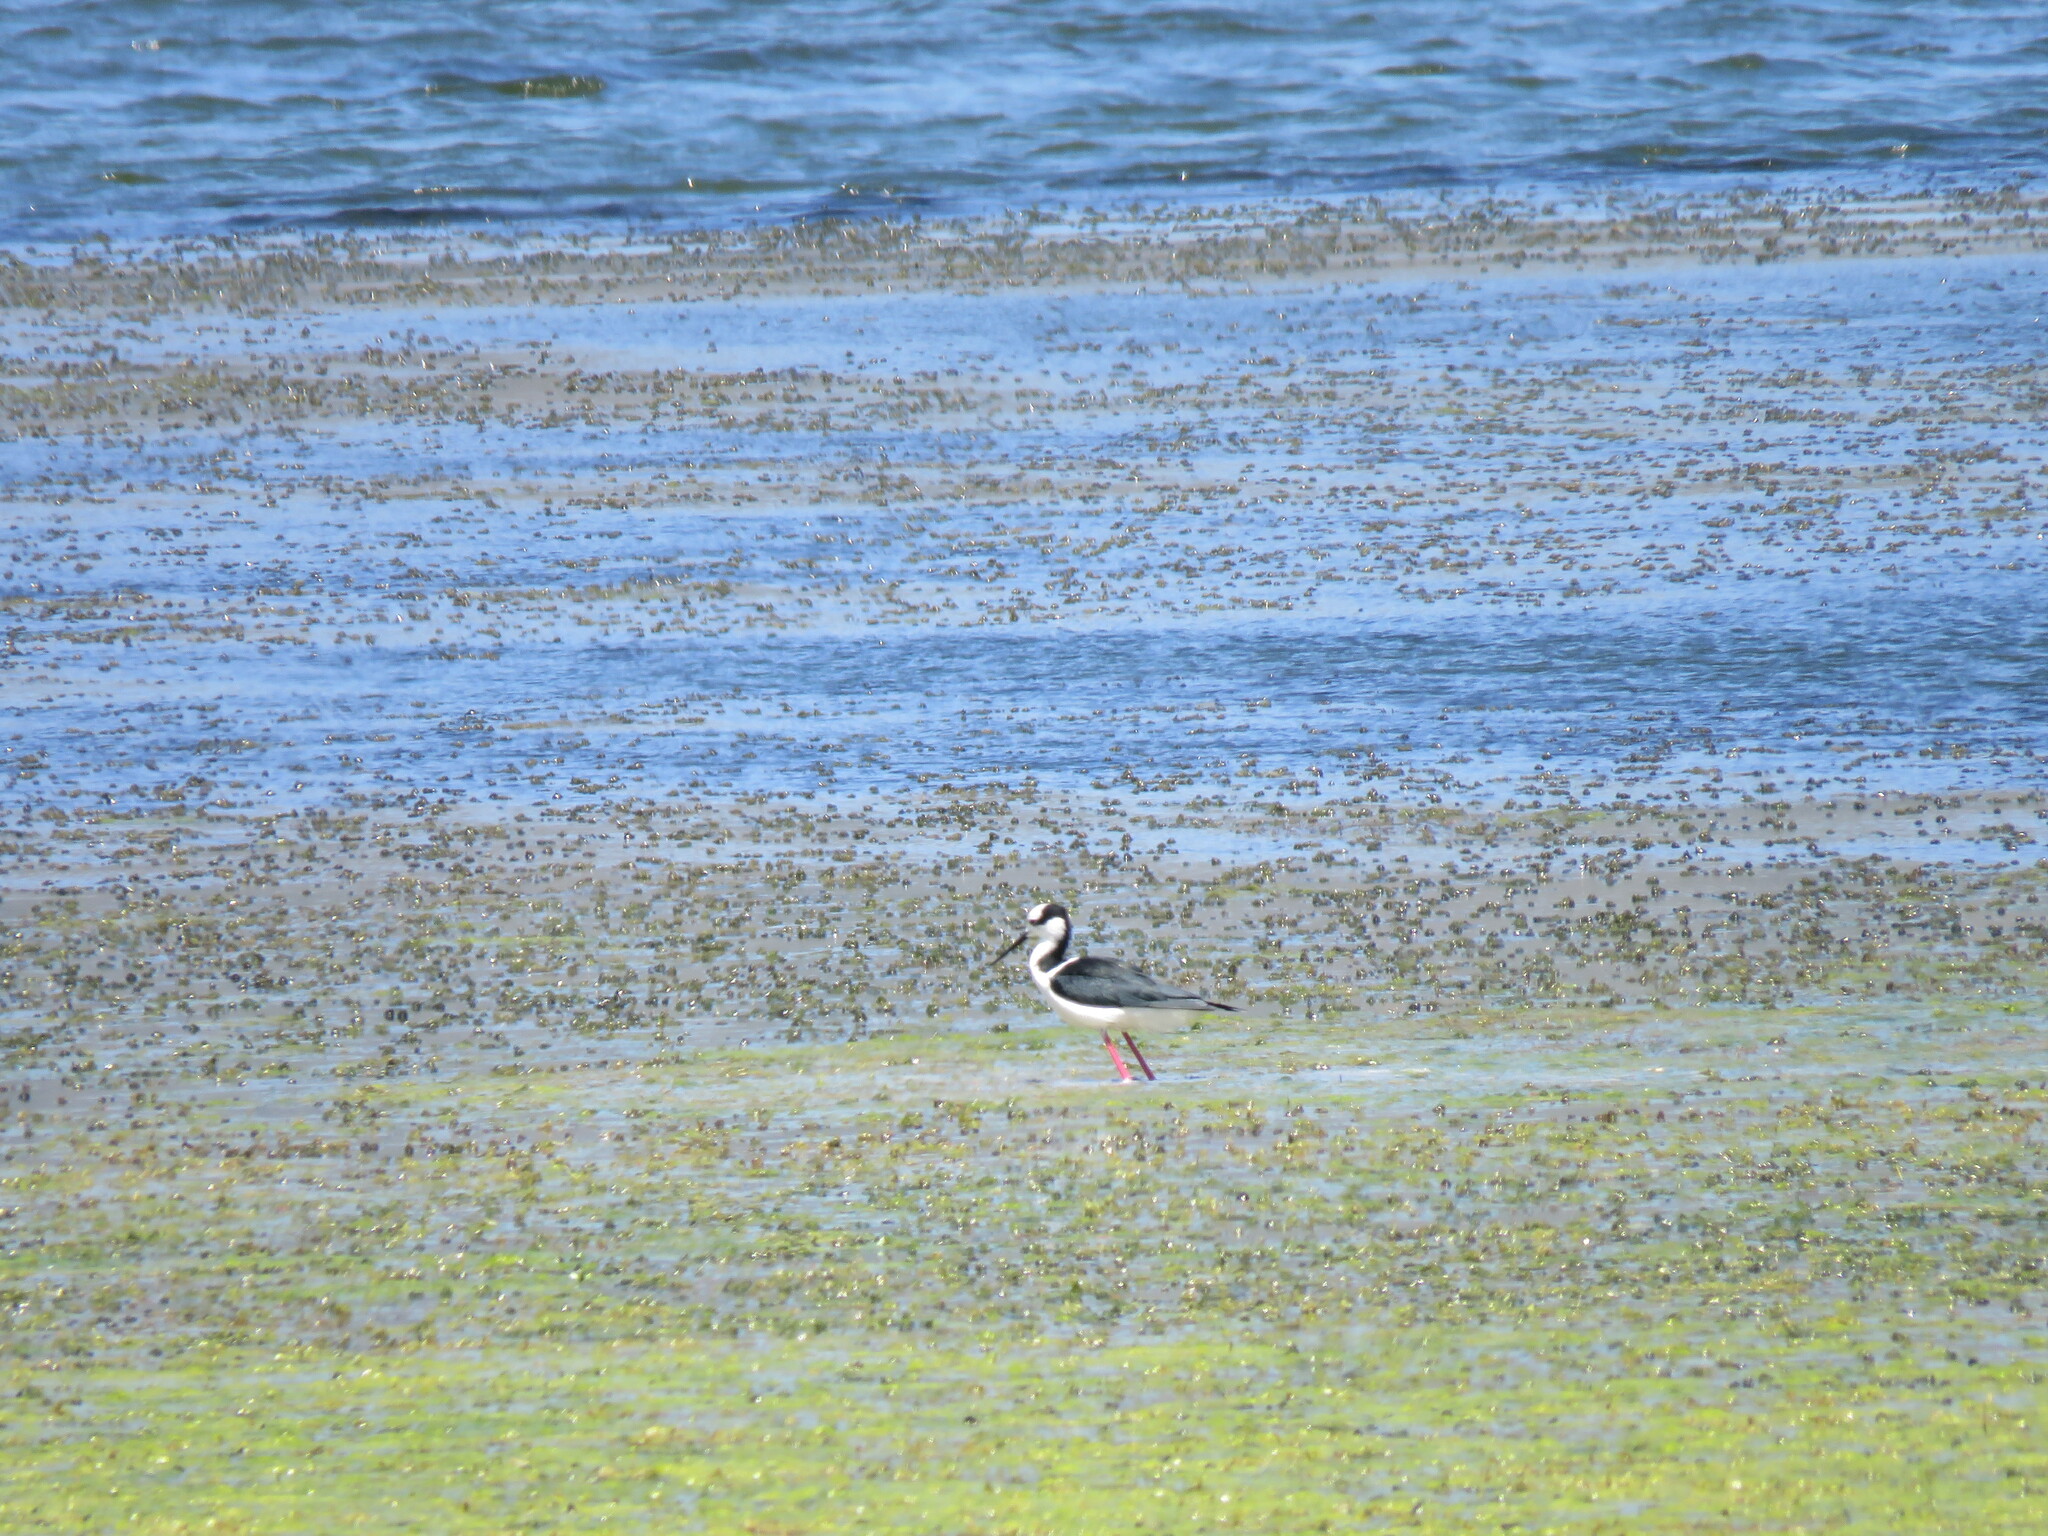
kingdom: Animalia
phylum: Chordata
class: Aves
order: Charadriiformes
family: Recurvirostridae
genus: Himantopus
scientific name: Himantopus mexicanus
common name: Black-necked stilt
